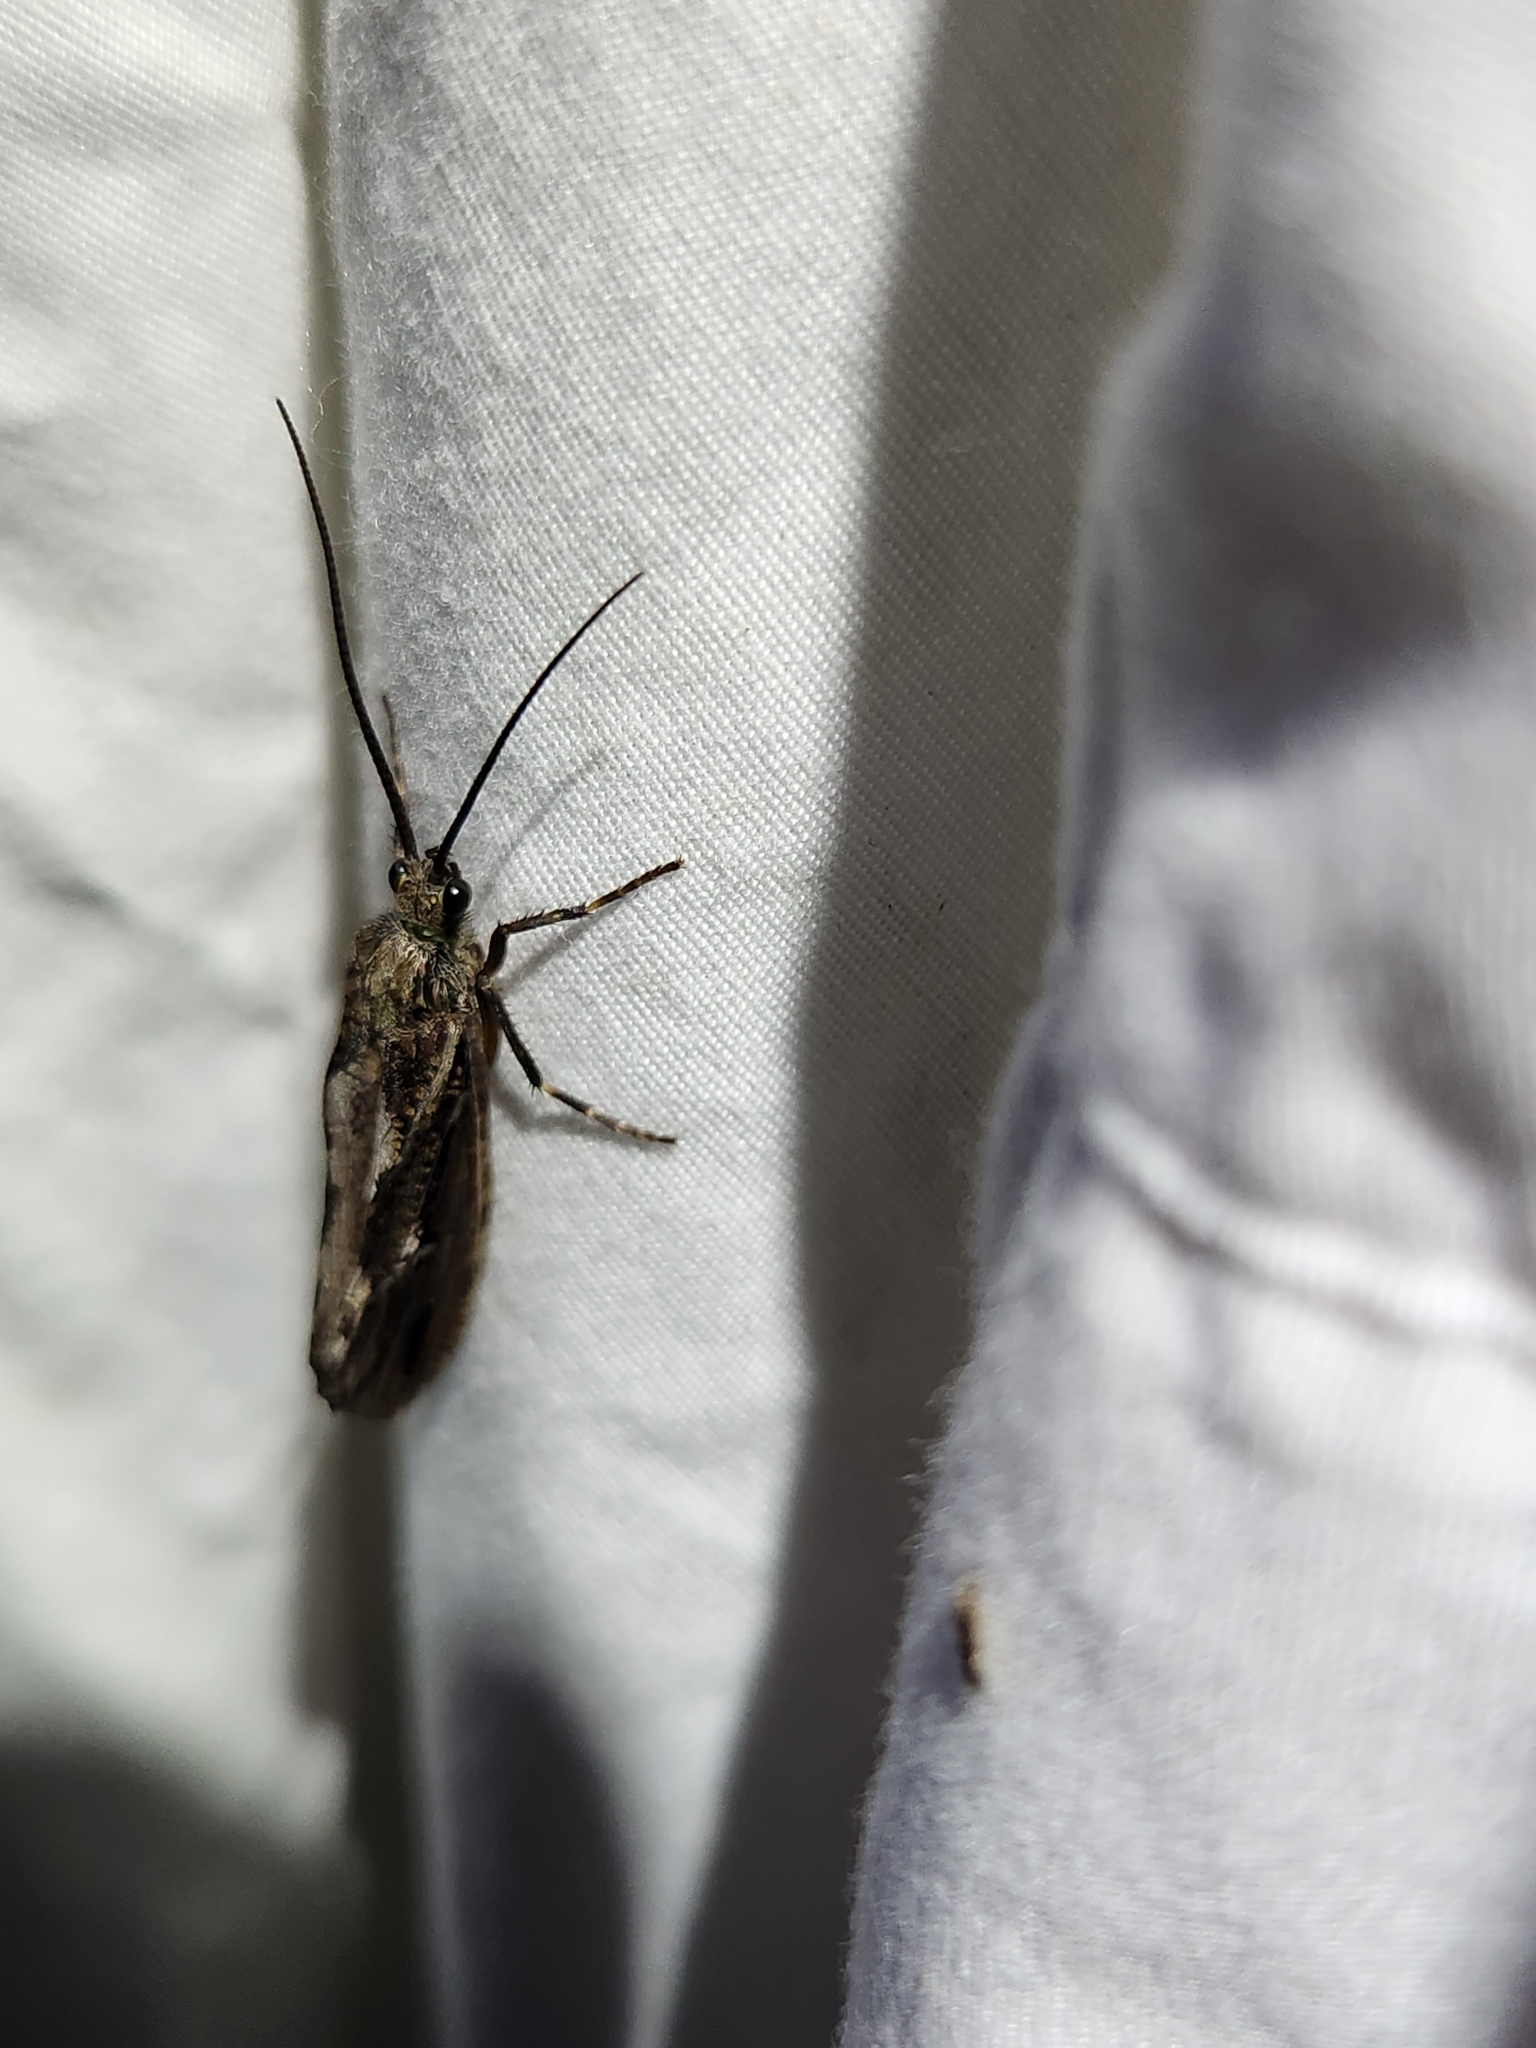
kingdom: Animalia
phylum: Arthropoda
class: Insecta
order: Trichoptera
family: Phryganeidae
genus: Phryganea
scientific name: Phryganea sayi
